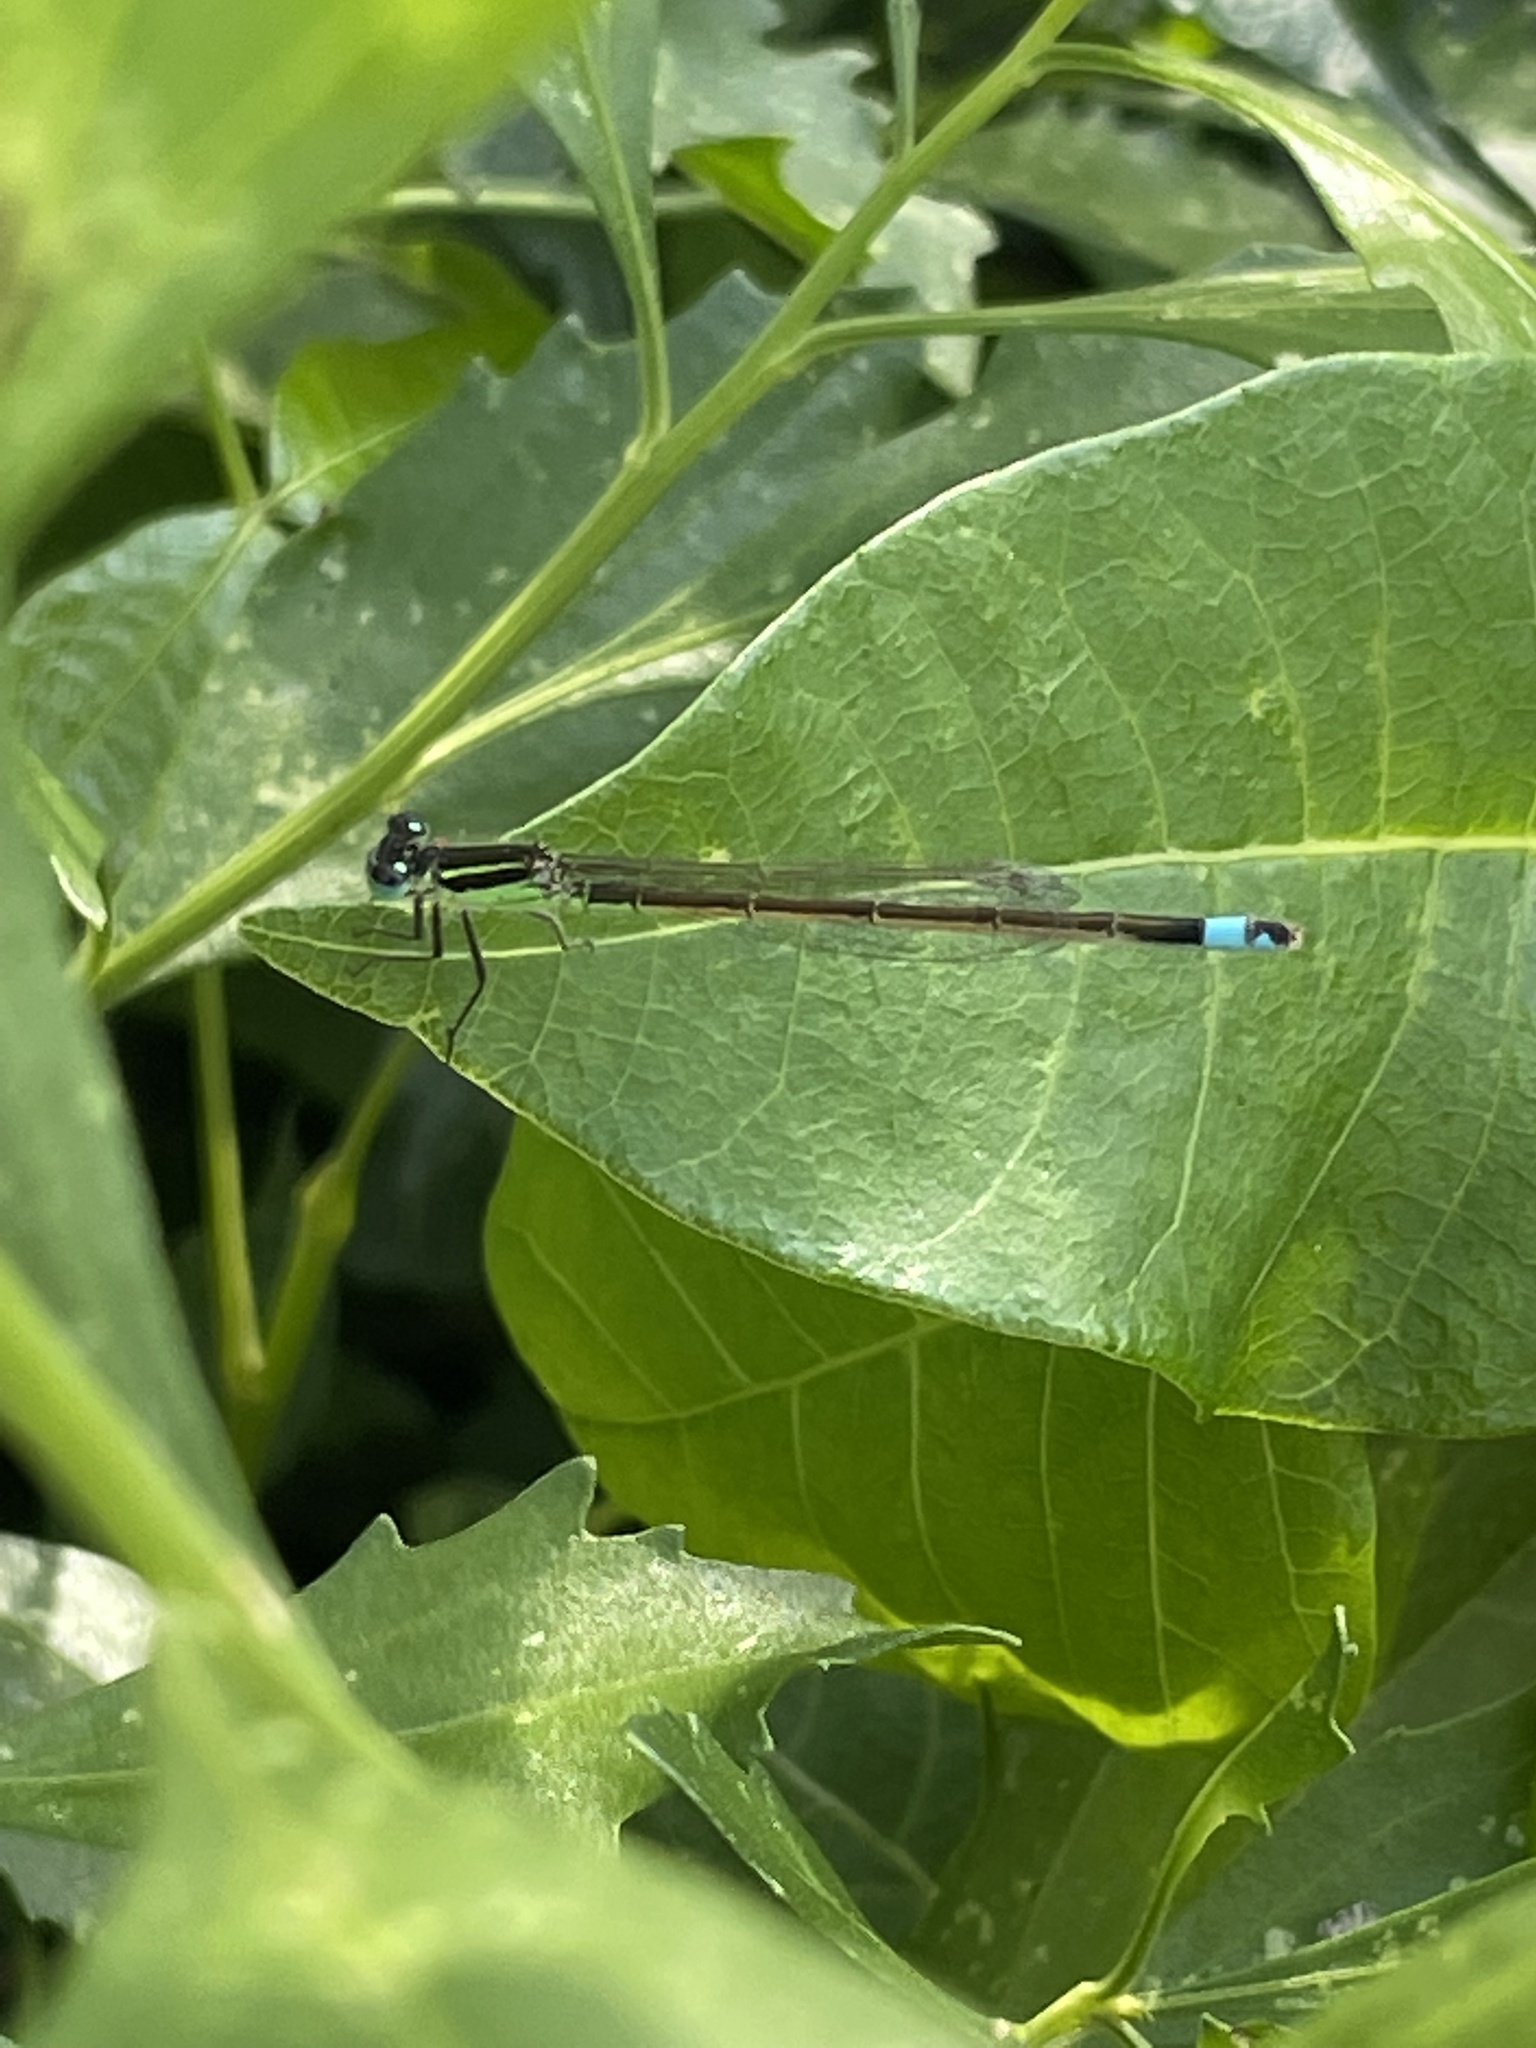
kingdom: Animalia
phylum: Arthropoda
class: Insecta
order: Odonata
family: Coenagrionidae
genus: Ischnura
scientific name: Ischnura ramburii
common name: Rambur's forktail
